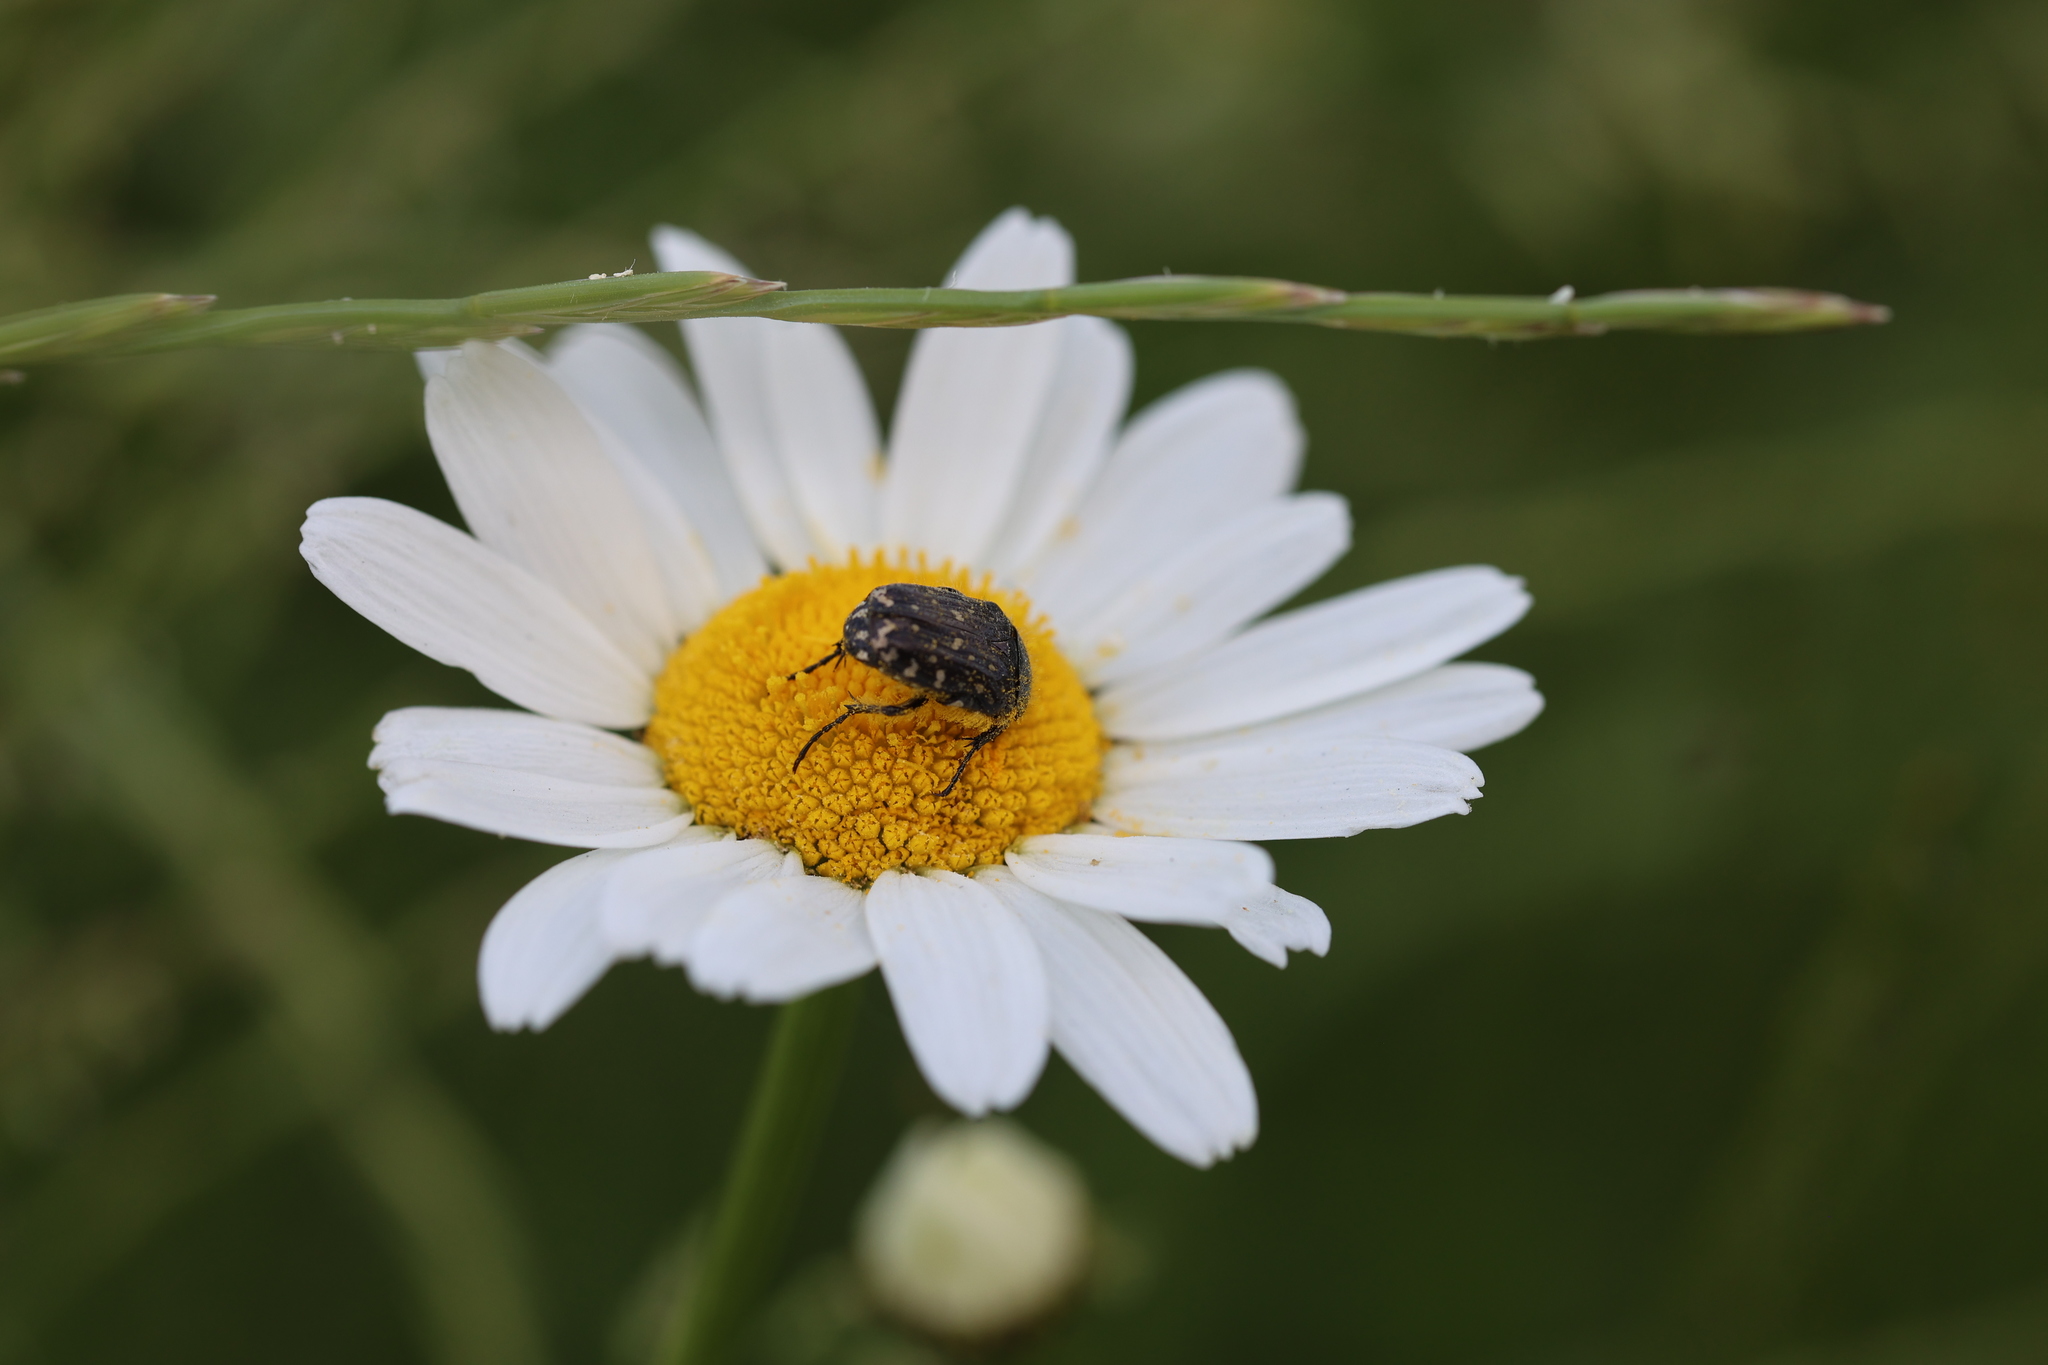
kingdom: Animalia
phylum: Arthropoda
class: Insecta
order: Coleoptera
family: Scarabaeidae
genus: Oxythyrea
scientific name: Oxythyrea funesta
